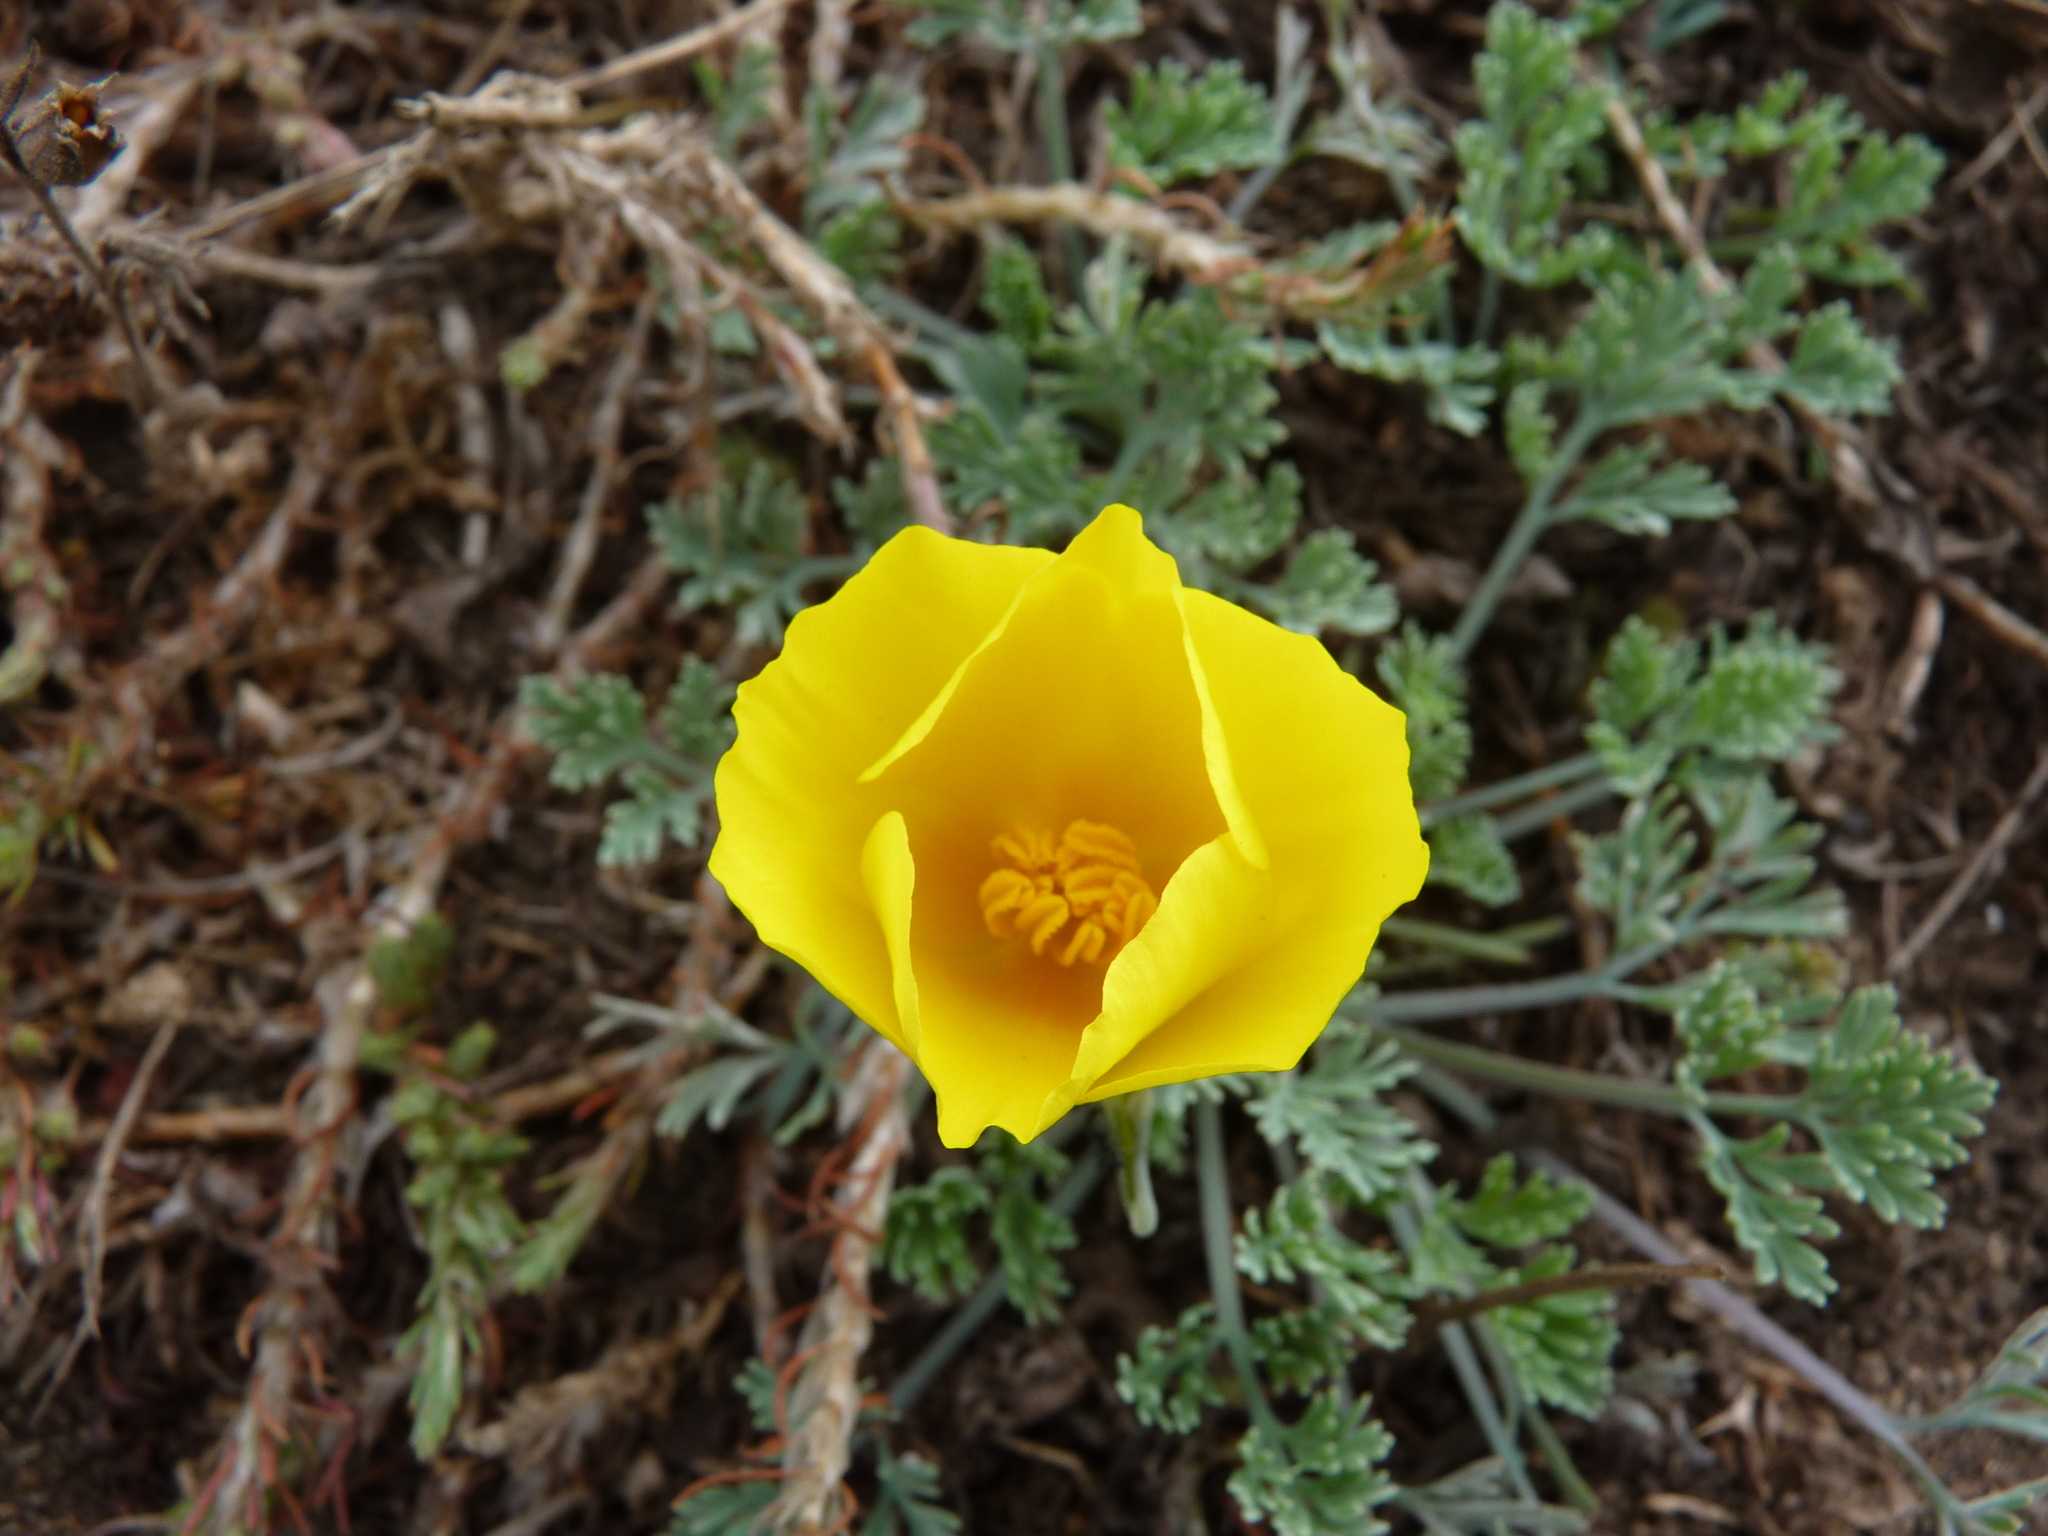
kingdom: Plantae
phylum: Tracheophyta
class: Magnoliopsida
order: Ranunculales
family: Papaveraceae
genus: Eschscholzia
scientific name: Eschscholzia californica
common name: California poppy
